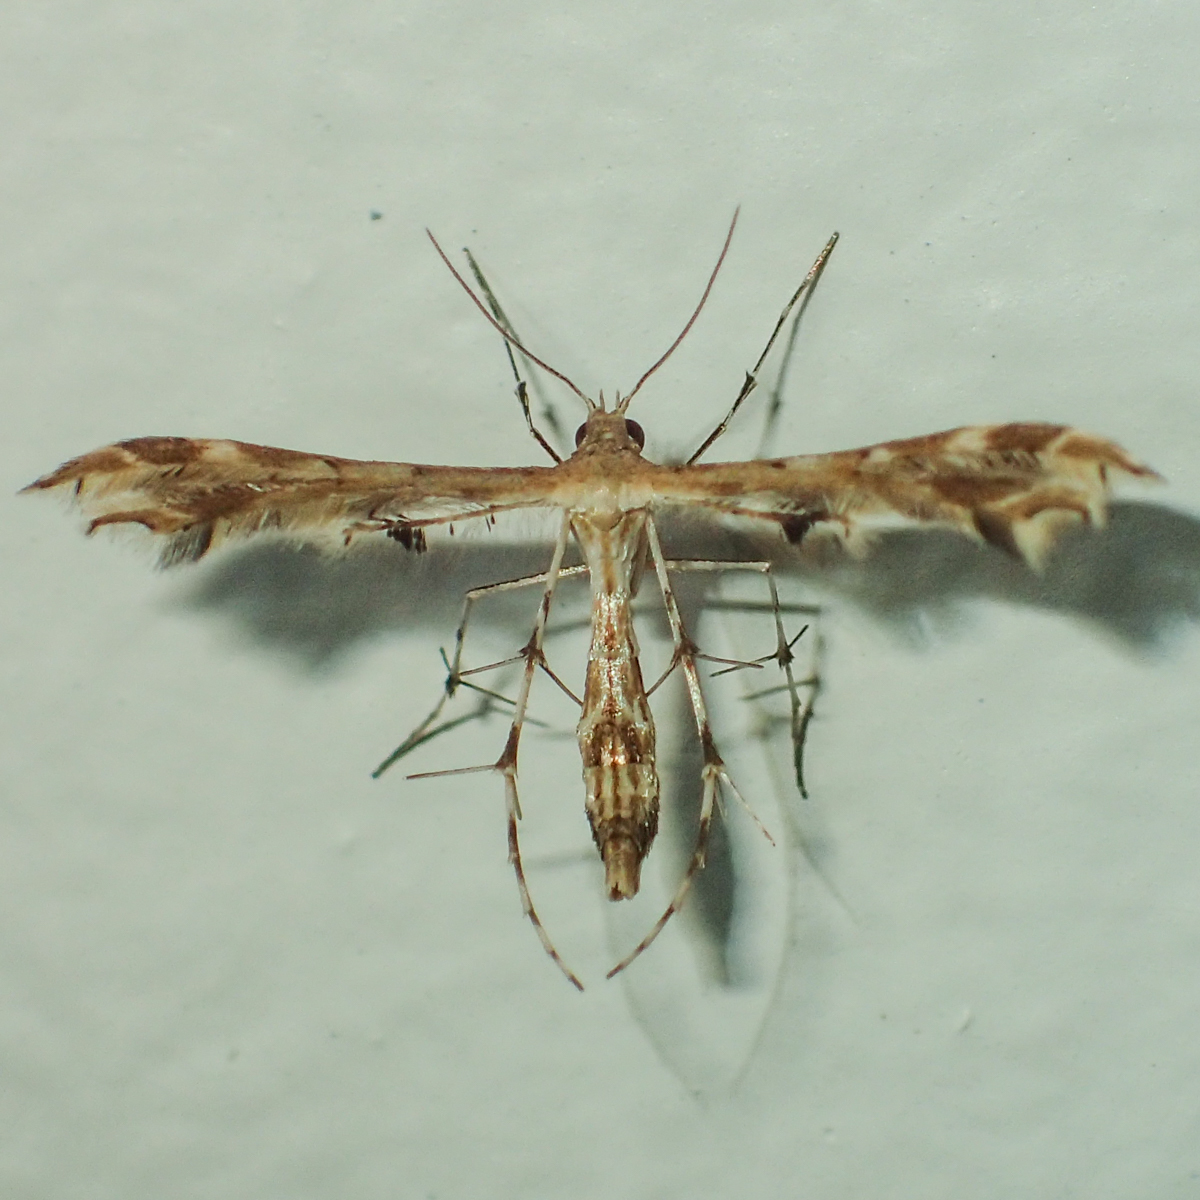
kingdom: Animalia
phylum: Arthropoda
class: Insecta
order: Lepidoptera
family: Pterophoridae
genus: Sphenarches
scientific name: Sphenarches anisodactylus
